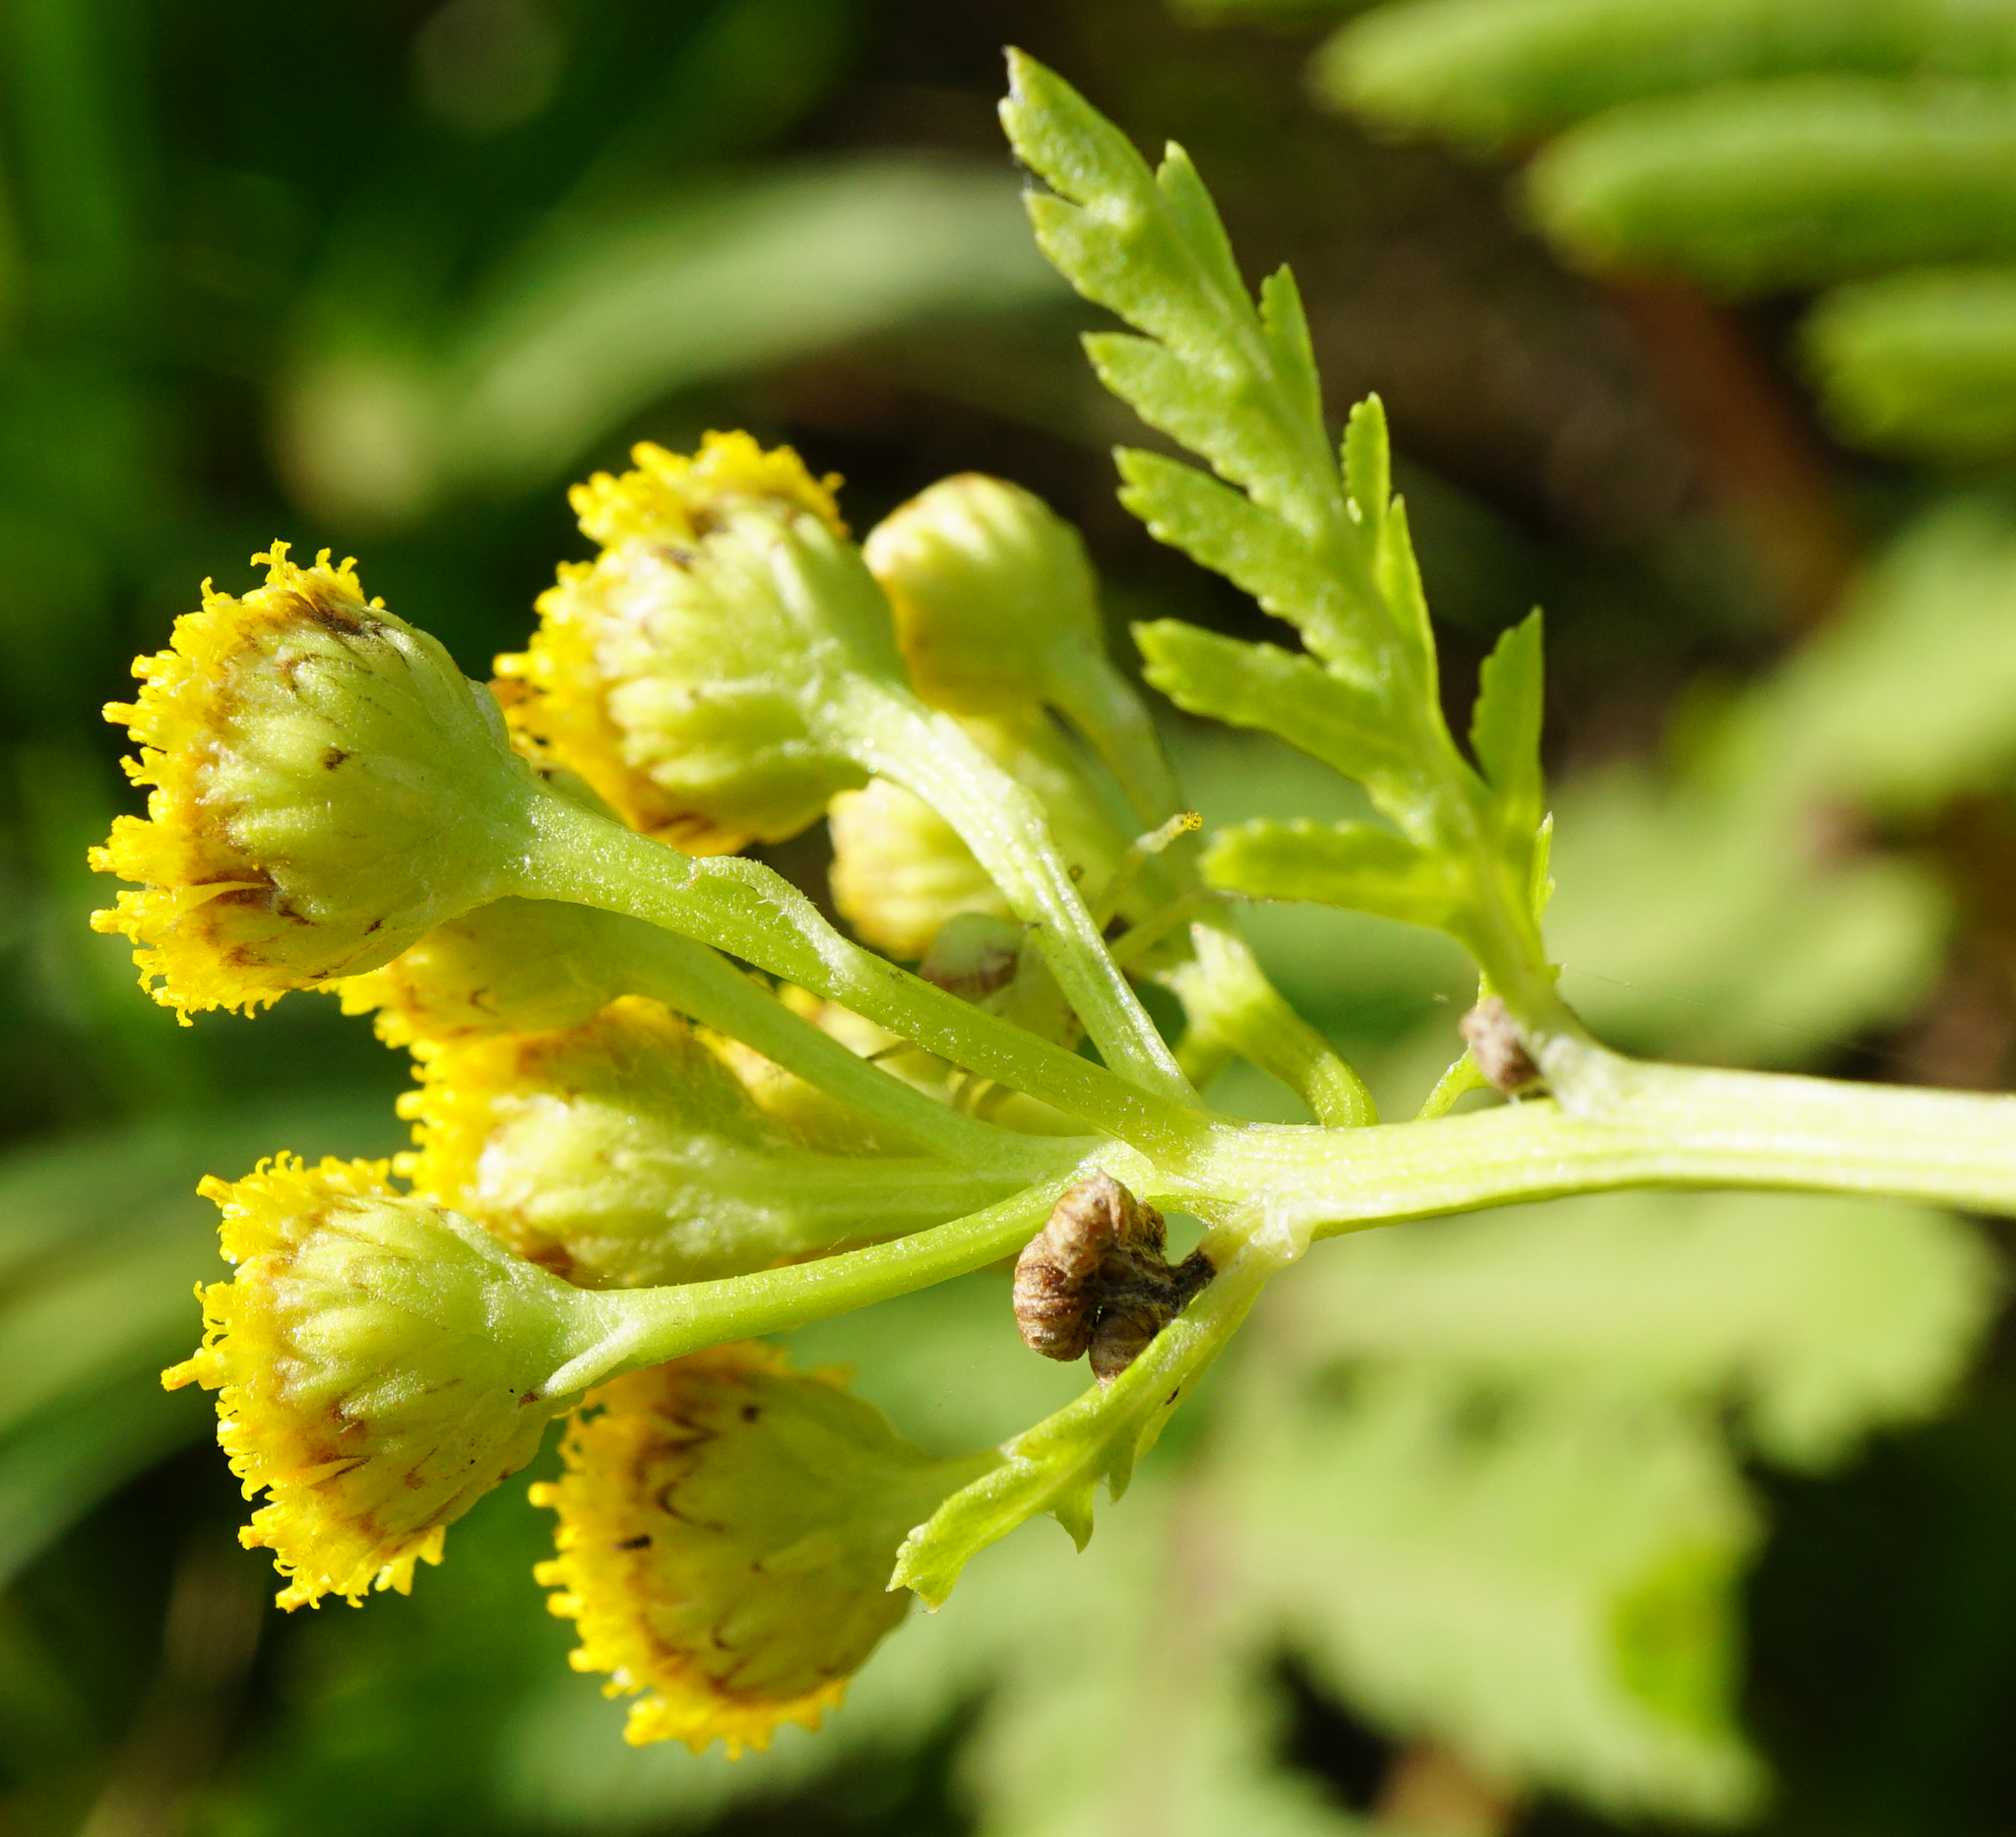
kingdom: Plantae
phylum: Tracheophyta
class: Magnoliopsida
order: Asterales
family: Asteraceae
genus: Tanacetum
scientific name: Tanacetum vulgare
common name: Common tansy
